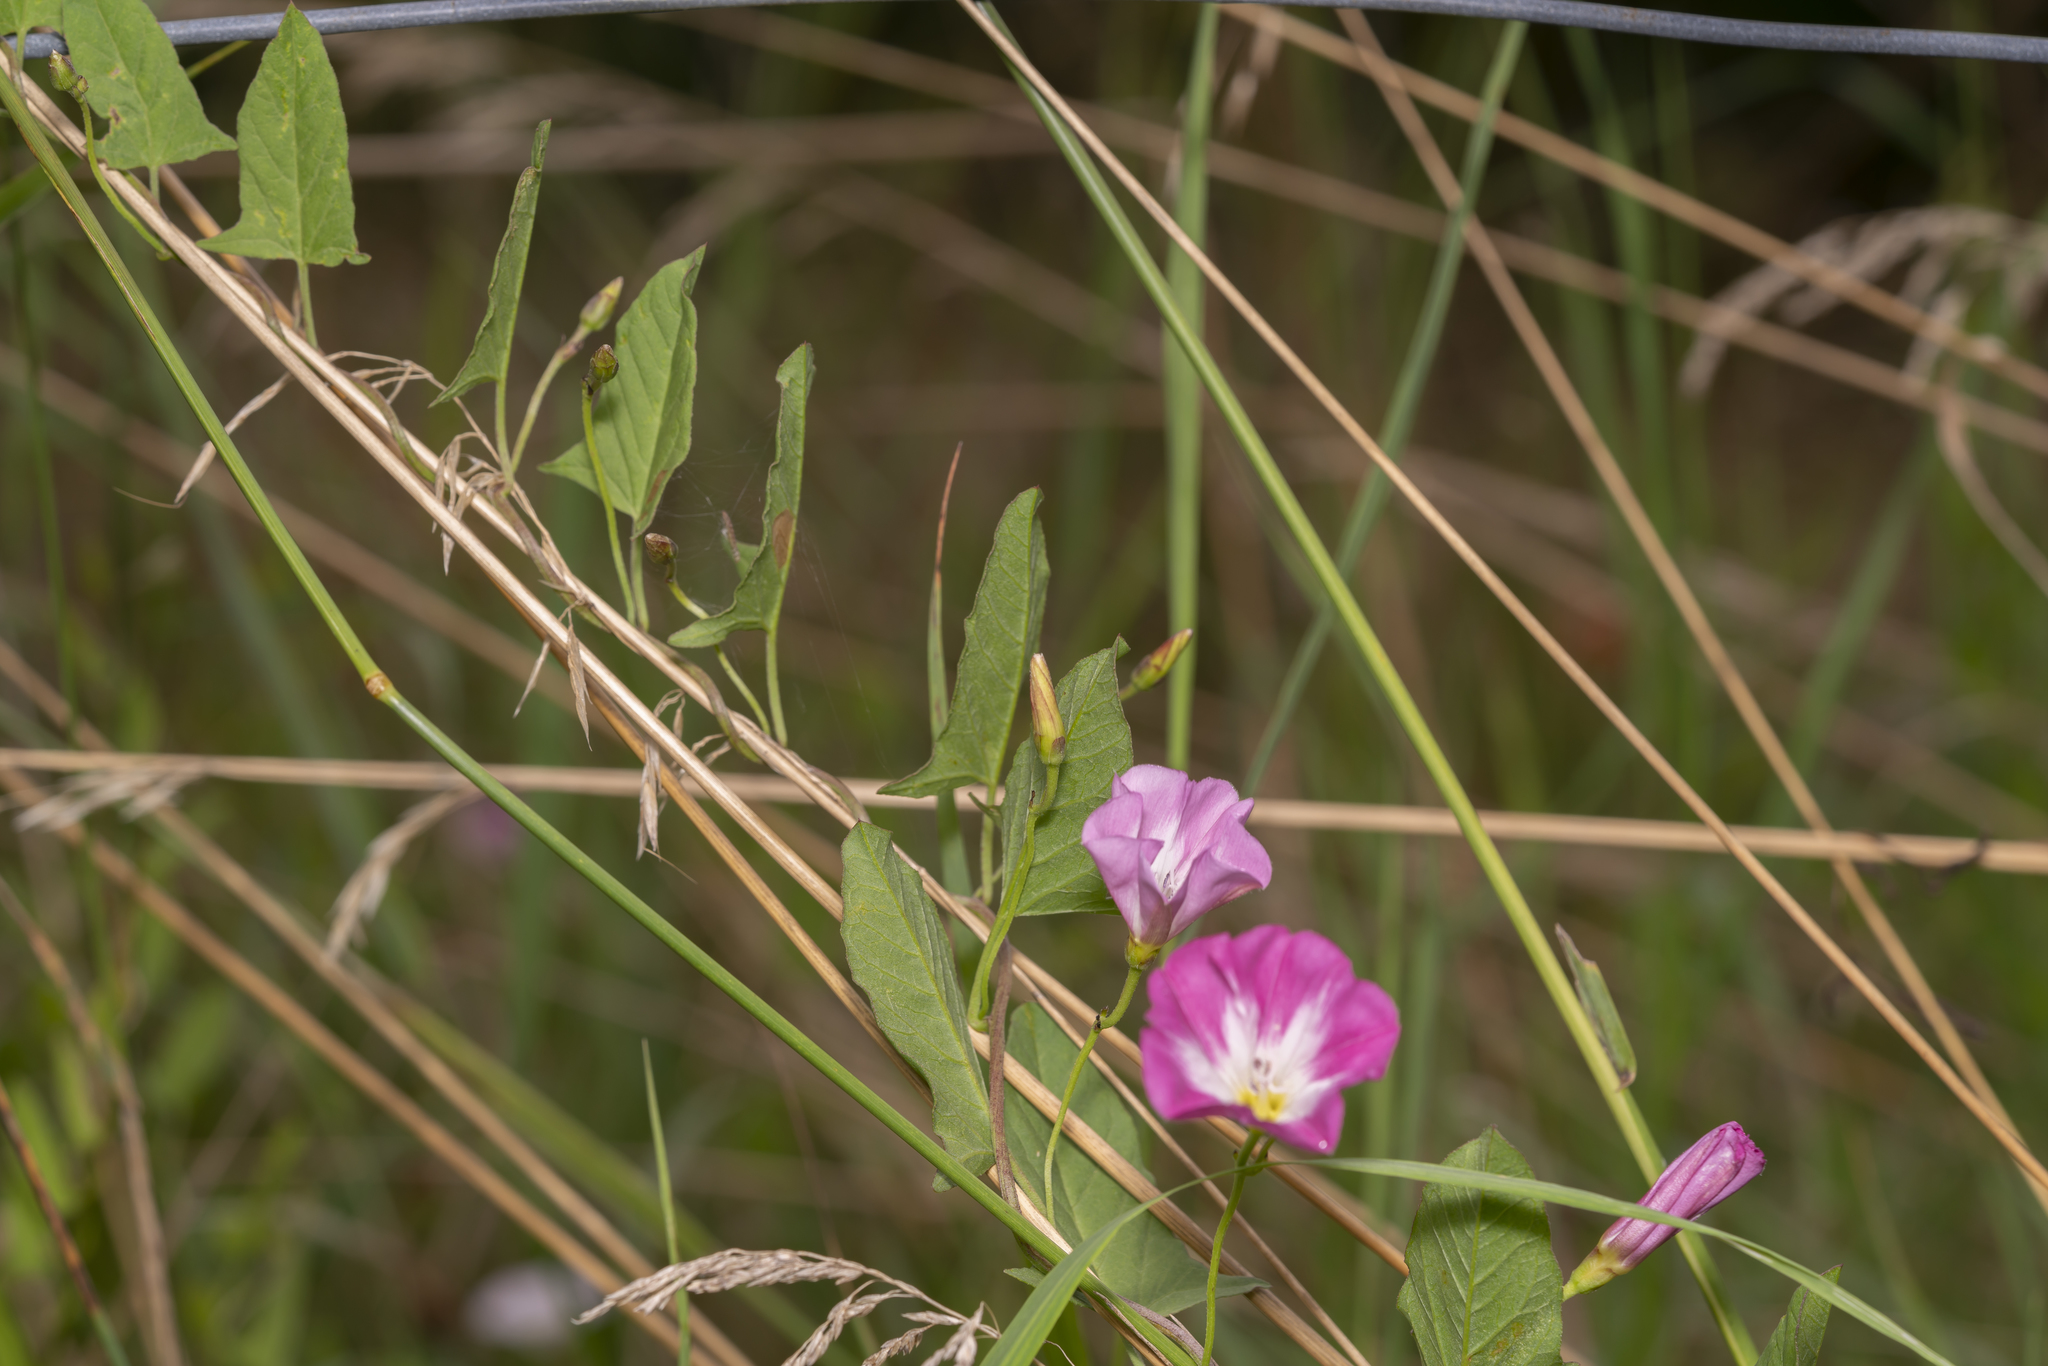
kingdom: Plantae
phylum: Tracheophyta
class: Magnoliopsida
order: Solanales
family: Convolvulaceae
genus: Convolvulus
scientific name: Convolvulus arvensis
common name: Field bindweed
